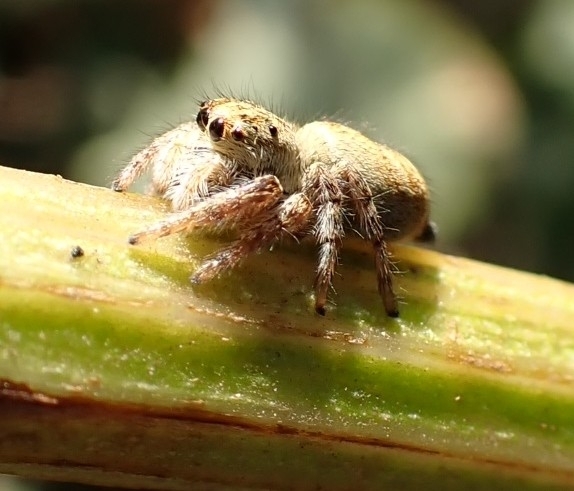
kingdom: Animalia
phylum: Arthropoda
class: Arachnida
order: Araneae
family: Salticidae
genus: Carrhotus
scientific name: Carrhotus xanthogramma
